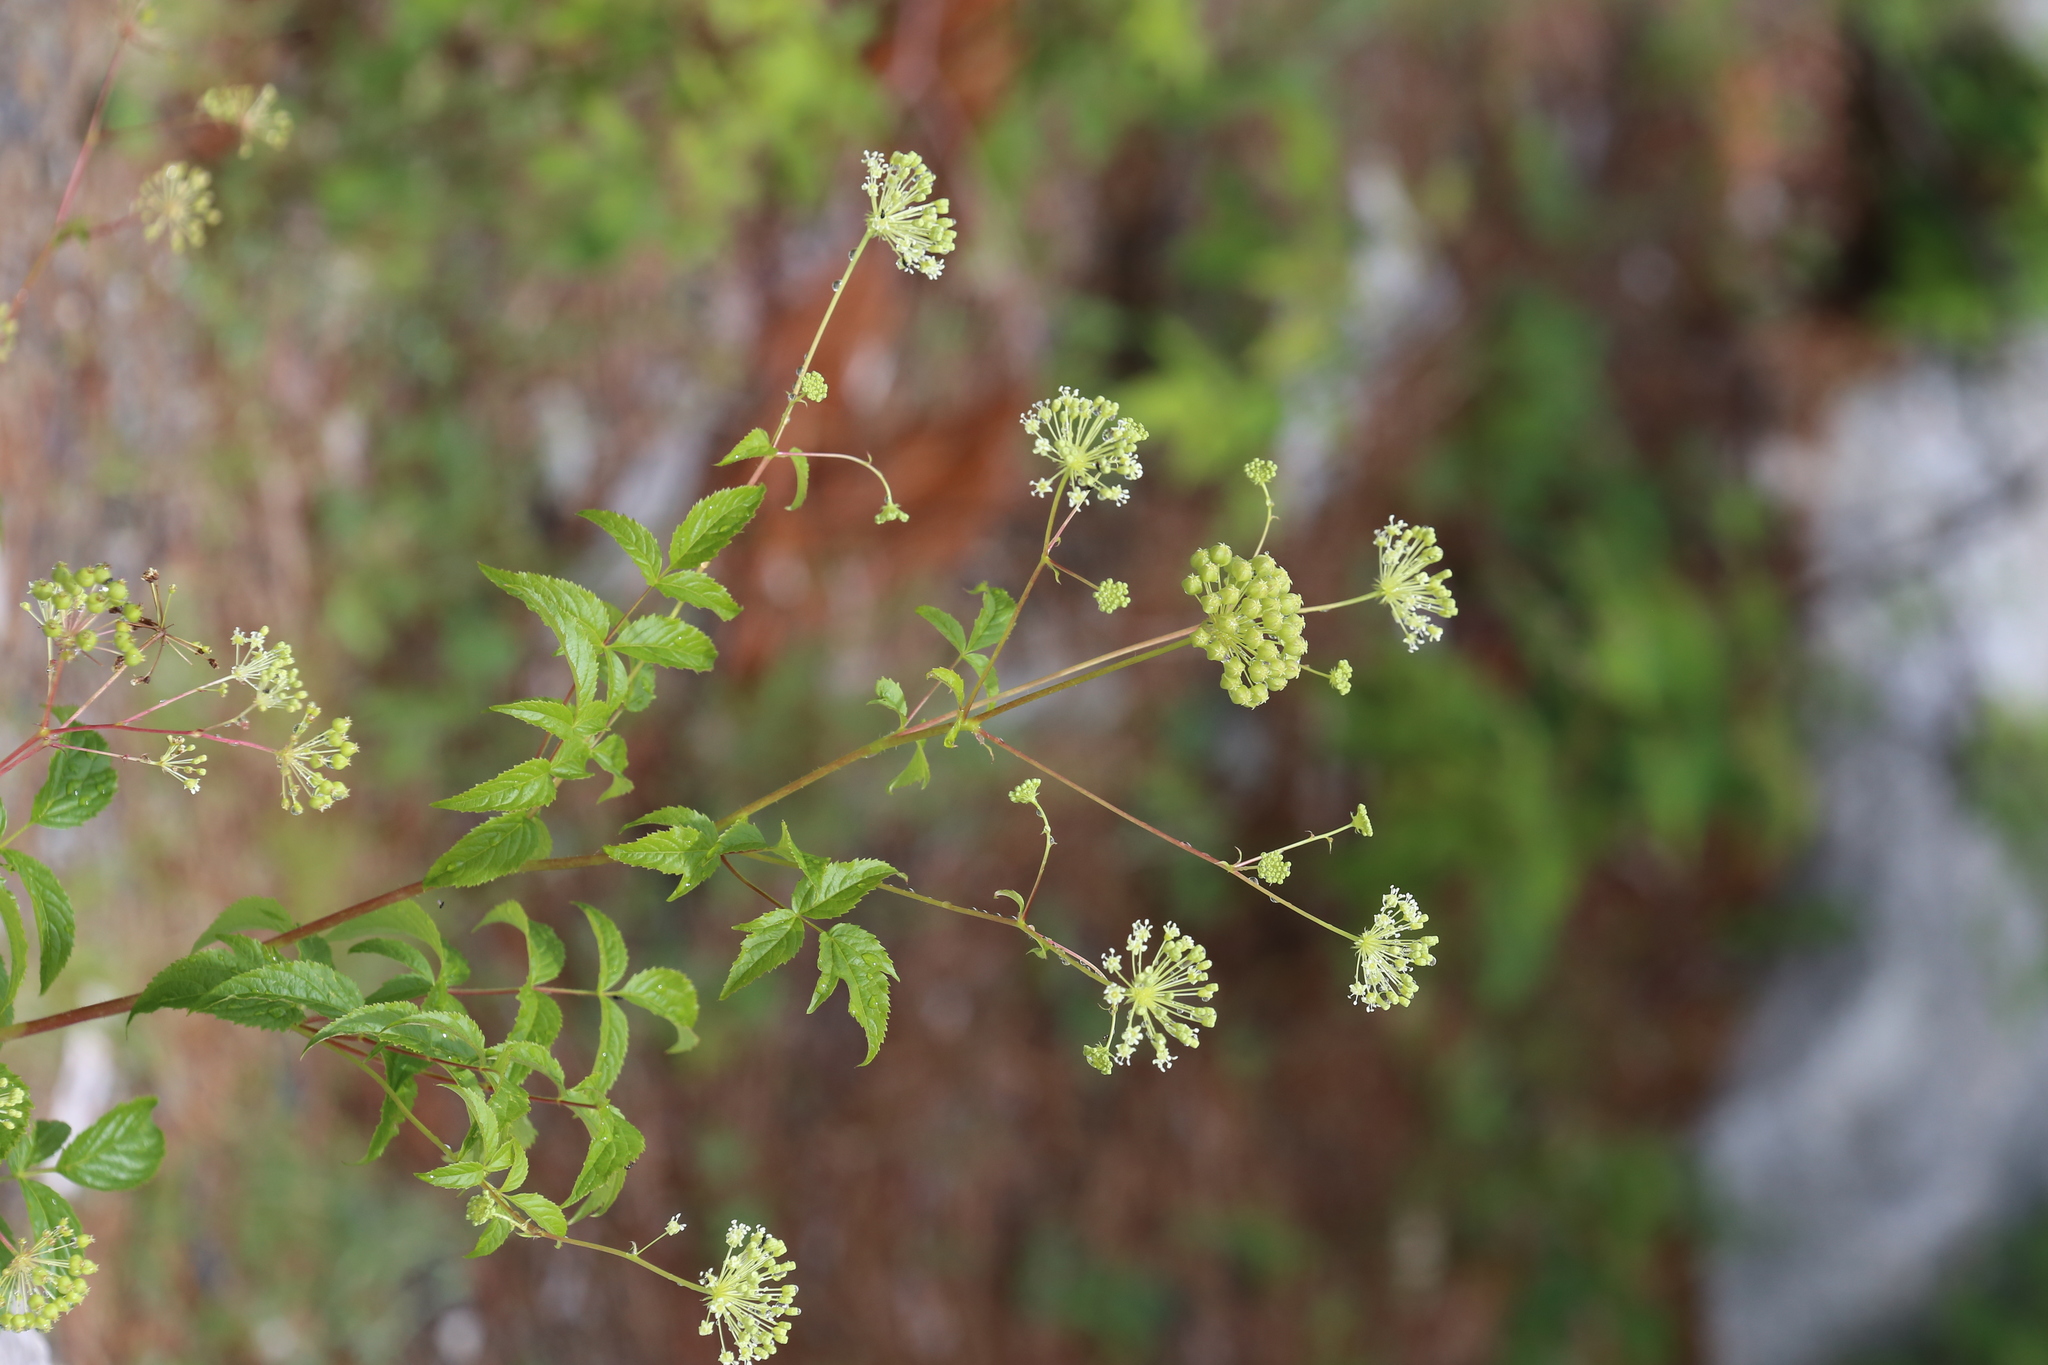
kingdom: Plantae
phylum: Tracheophyta
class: Magnoliopsida
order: Apiales
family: Araliaceae
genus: Aralia
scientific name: Aralia hispida
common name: Bristly sarsaparilla
